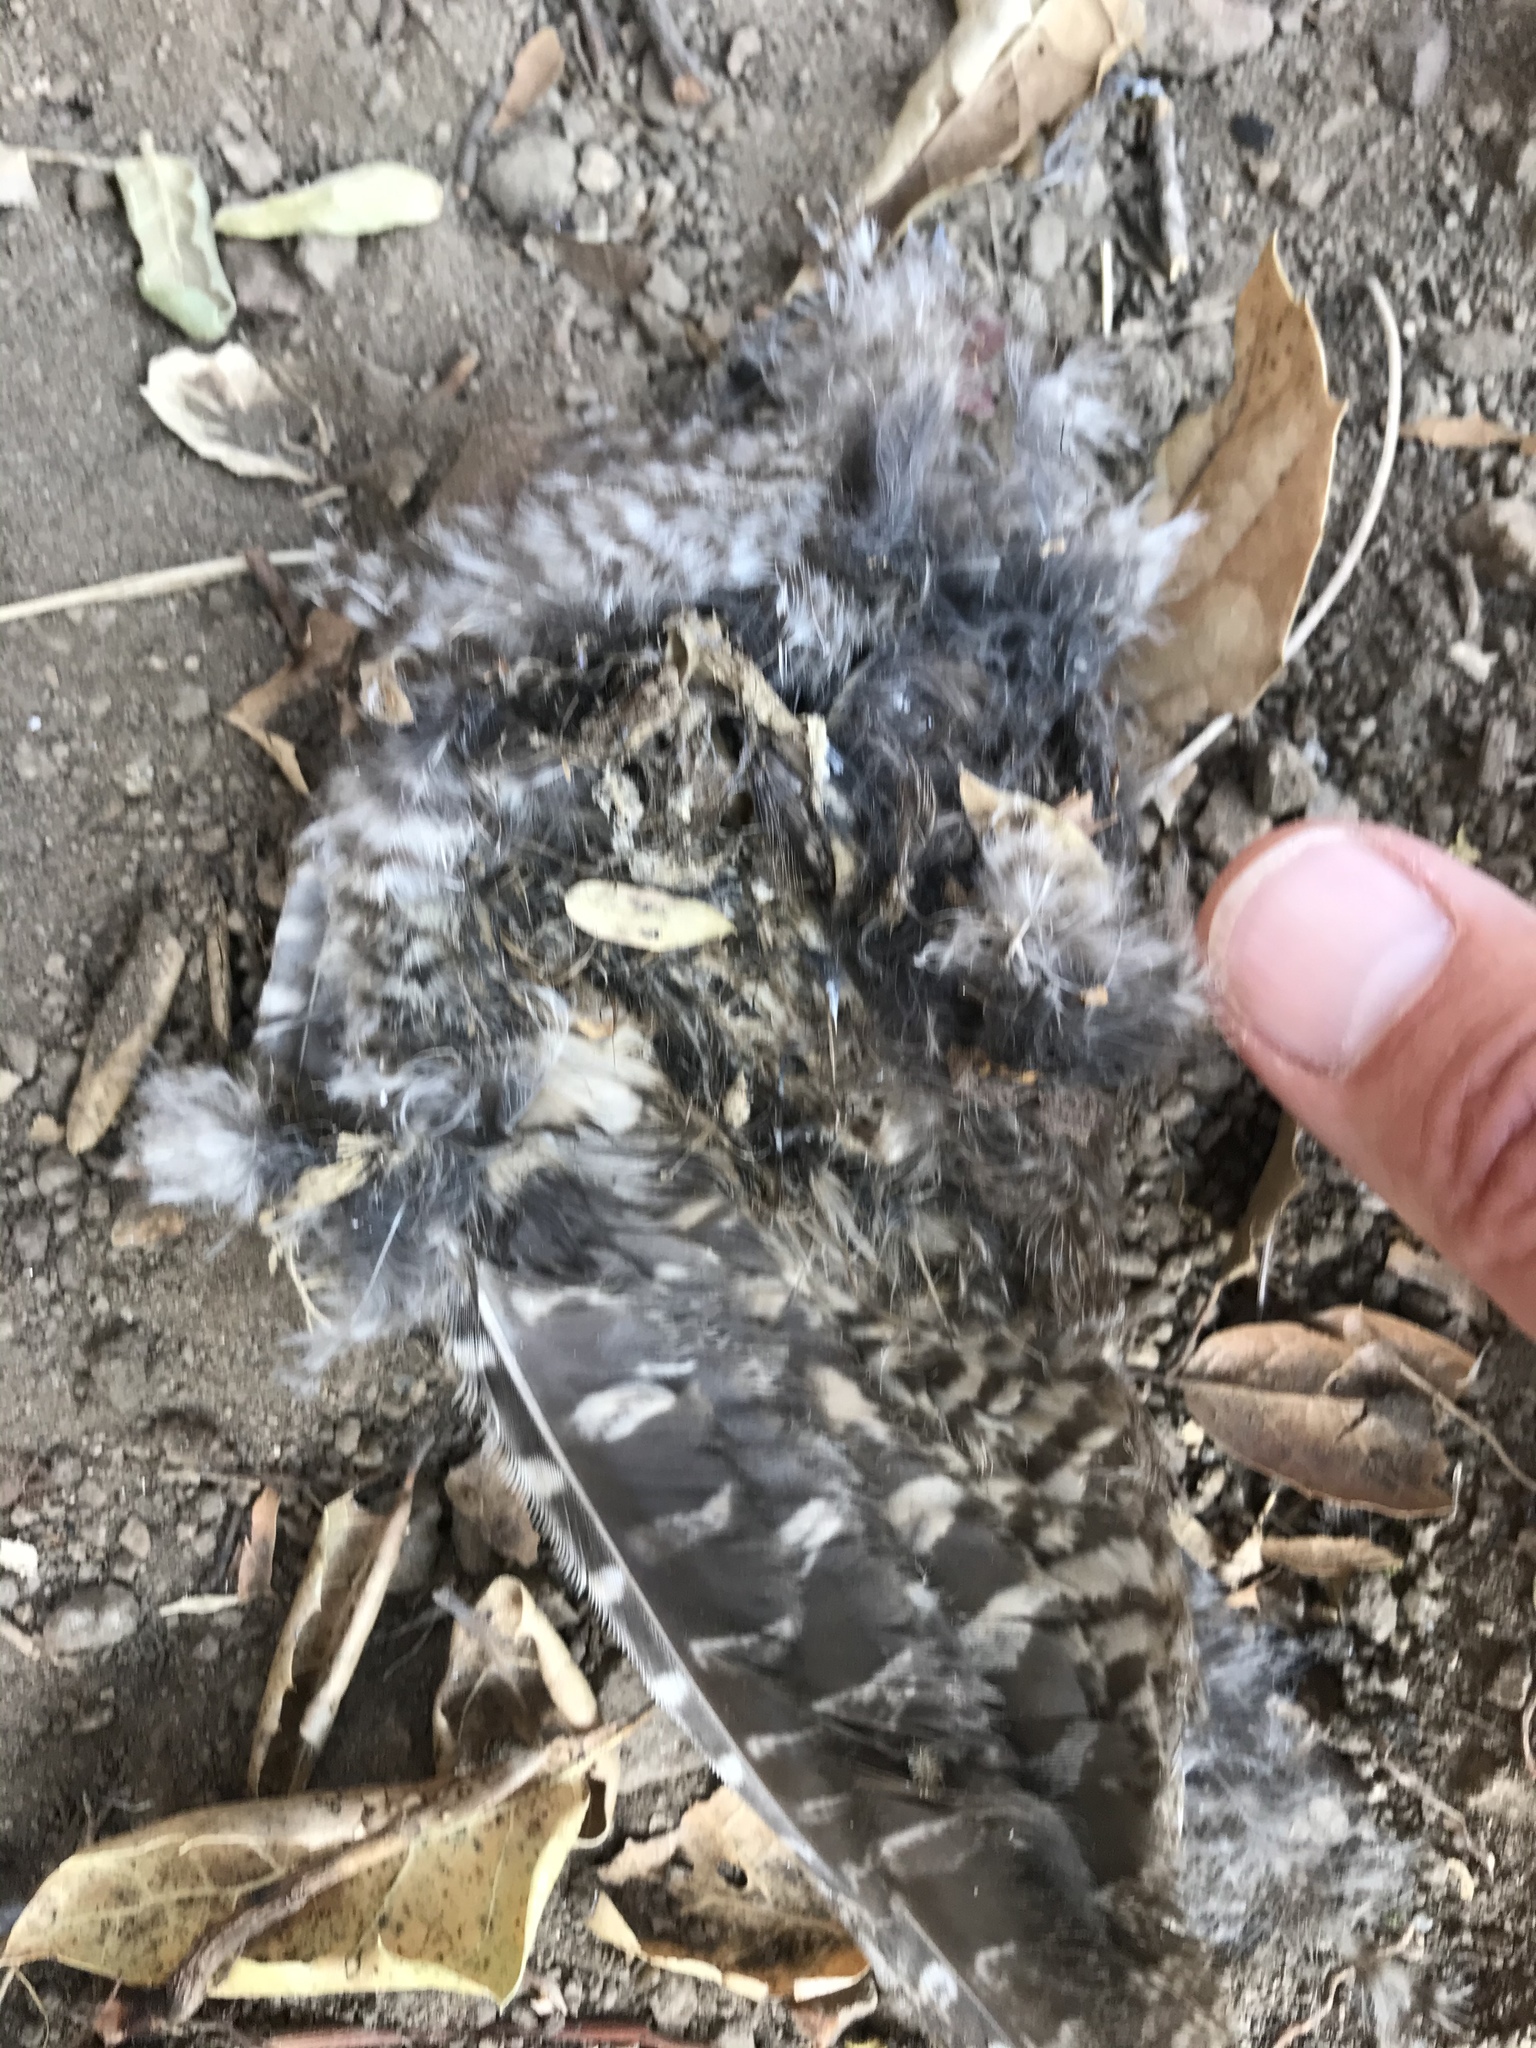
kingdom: Animalia
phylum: Chordata
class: Aves
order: Strigiformes
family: Strigidae
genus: Megascops
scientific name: Megascops kennicottii
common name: Western screech-owl
